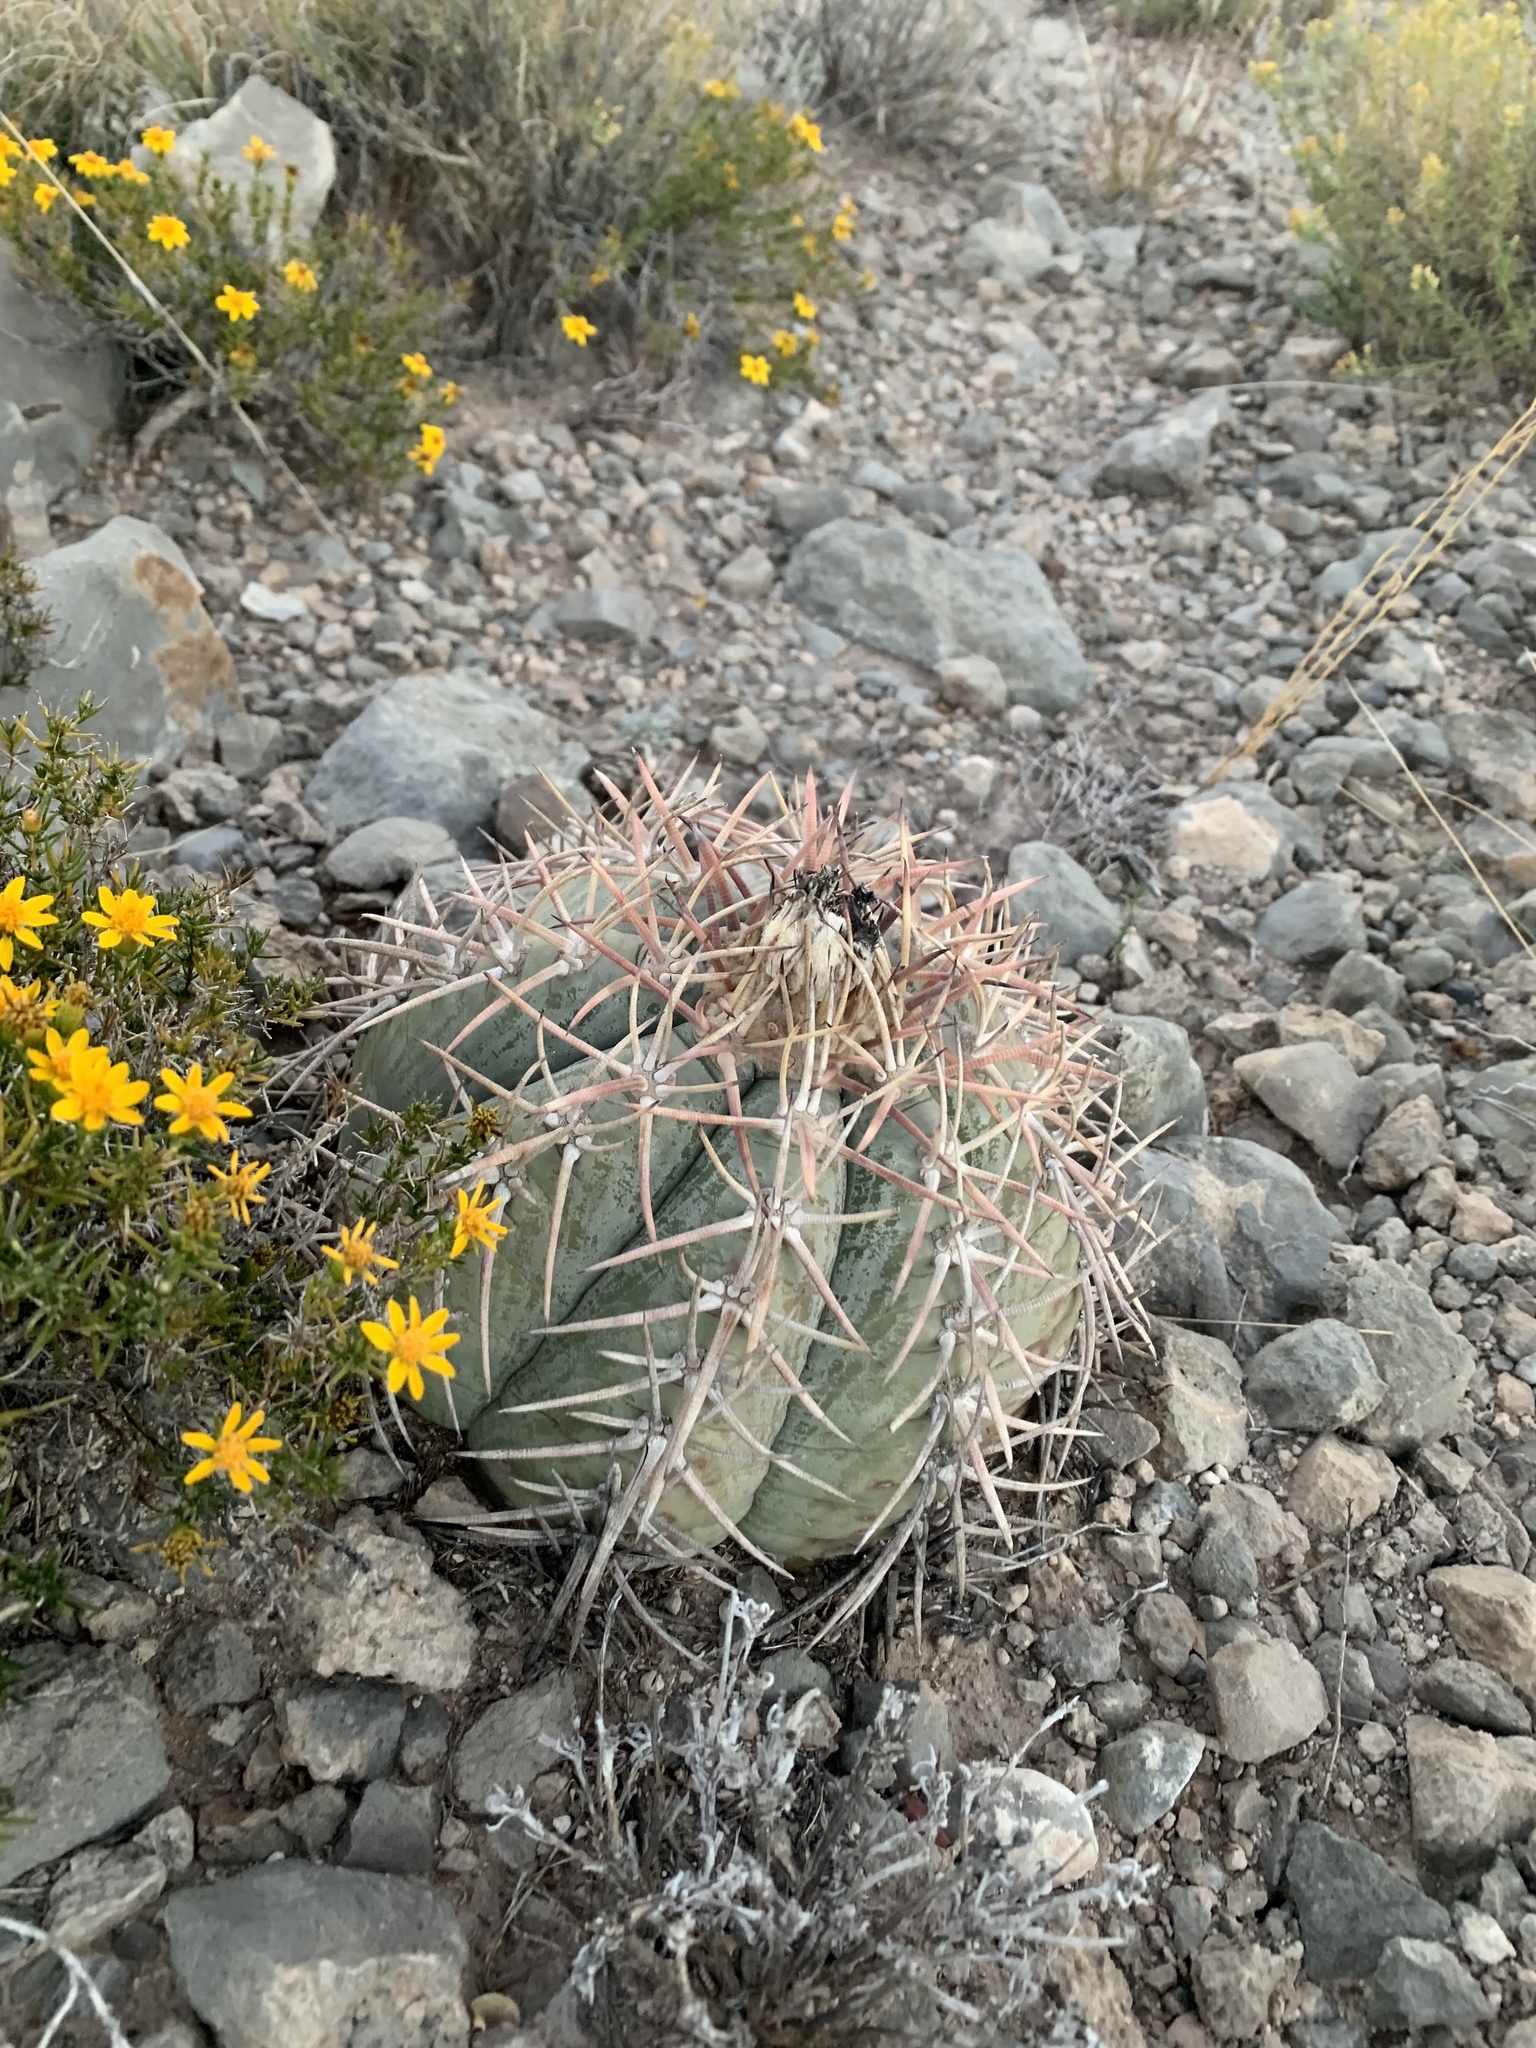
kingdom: Plantae
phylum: Tracheophyta
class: Magnoliopsida
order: Caryophyllales
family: Cactaceae
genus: Echinocactus
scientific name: Echinocactus horizonthalonius
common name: Devilshead
